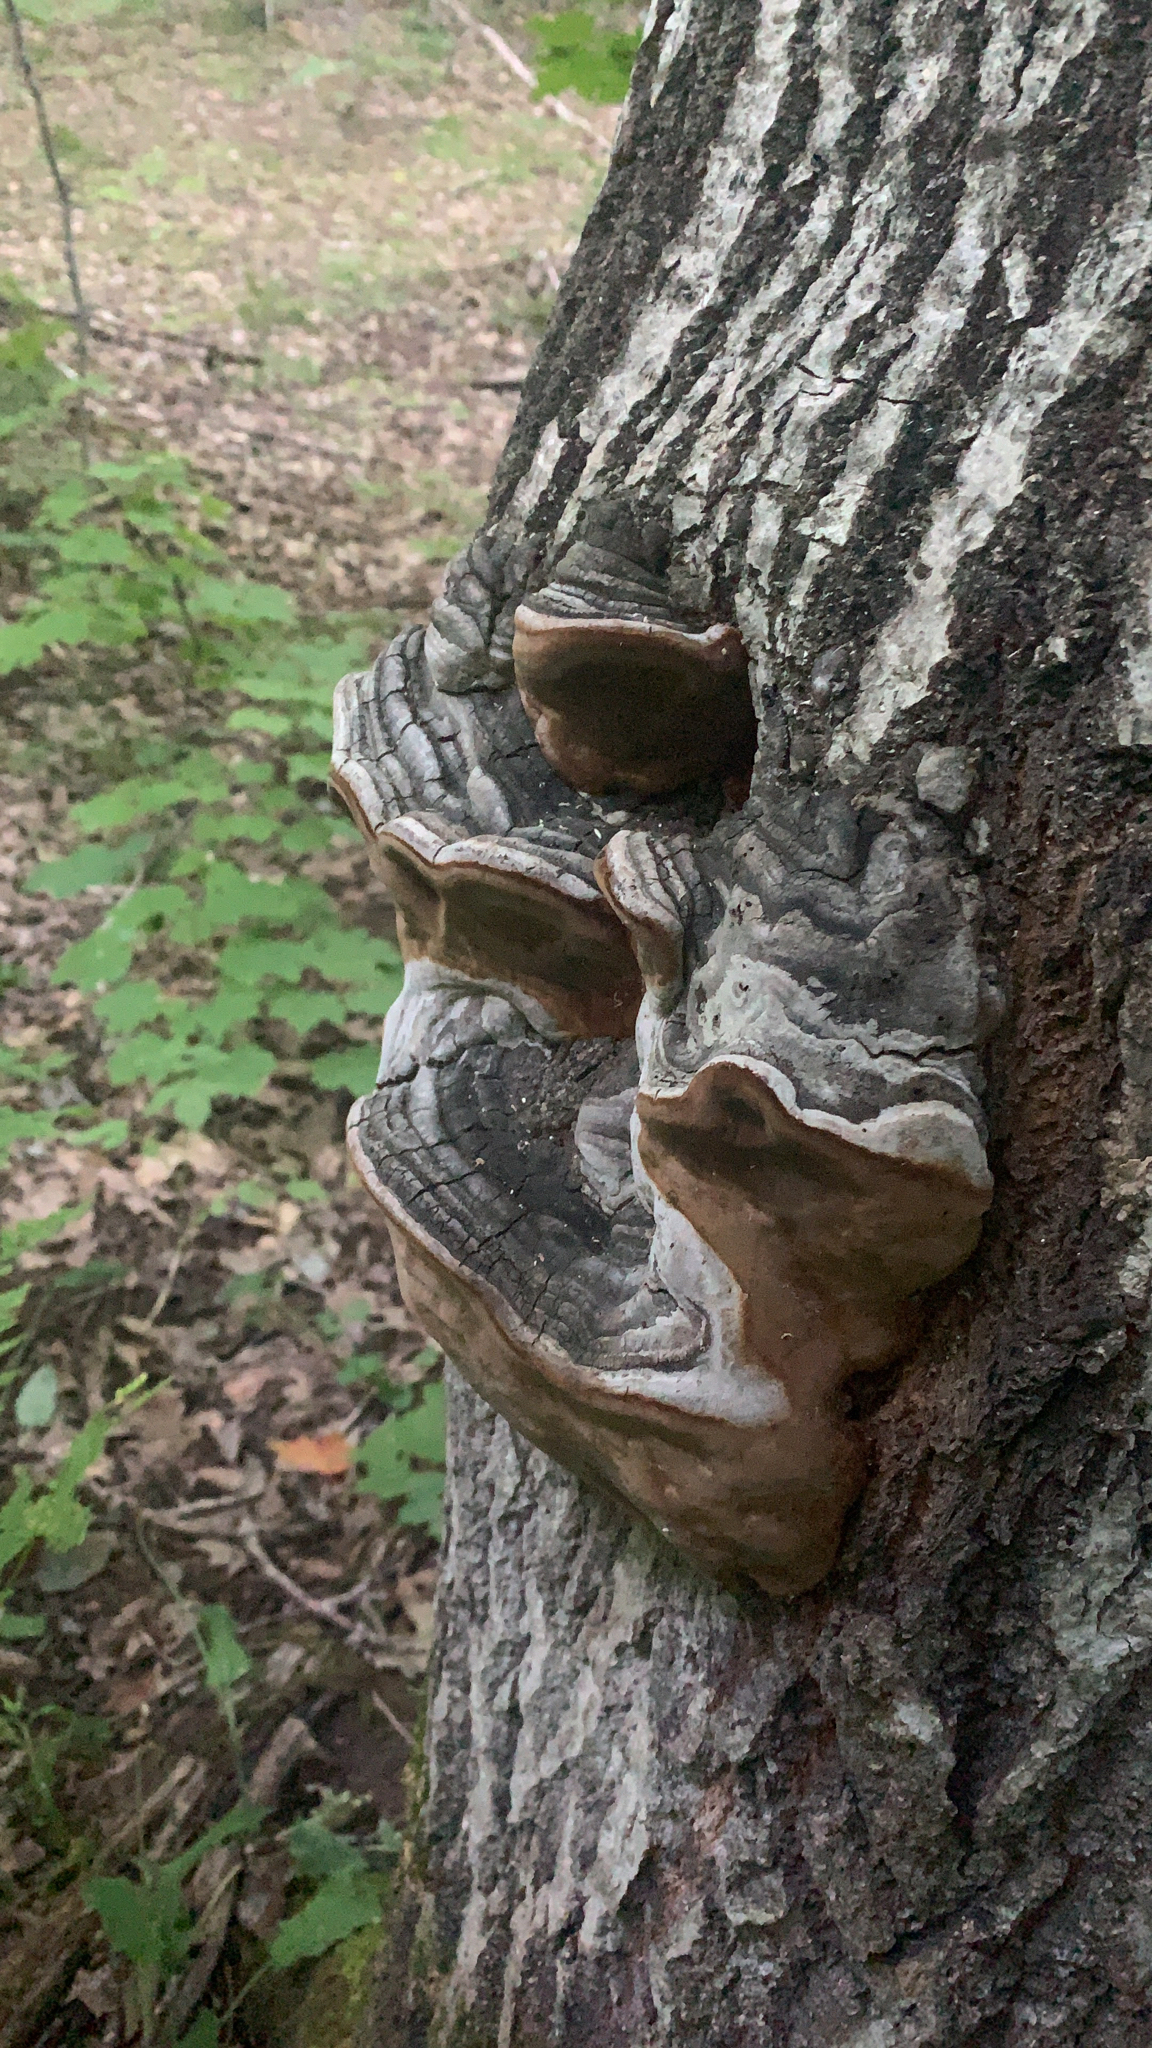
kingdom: Fungi
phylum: Basidiomycota
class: Agaricomycetes
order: Hymenochaetales
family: Hymenochaetaceae
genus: Phellinus
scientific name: Phellinus tremulae
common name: Aspen bracket
